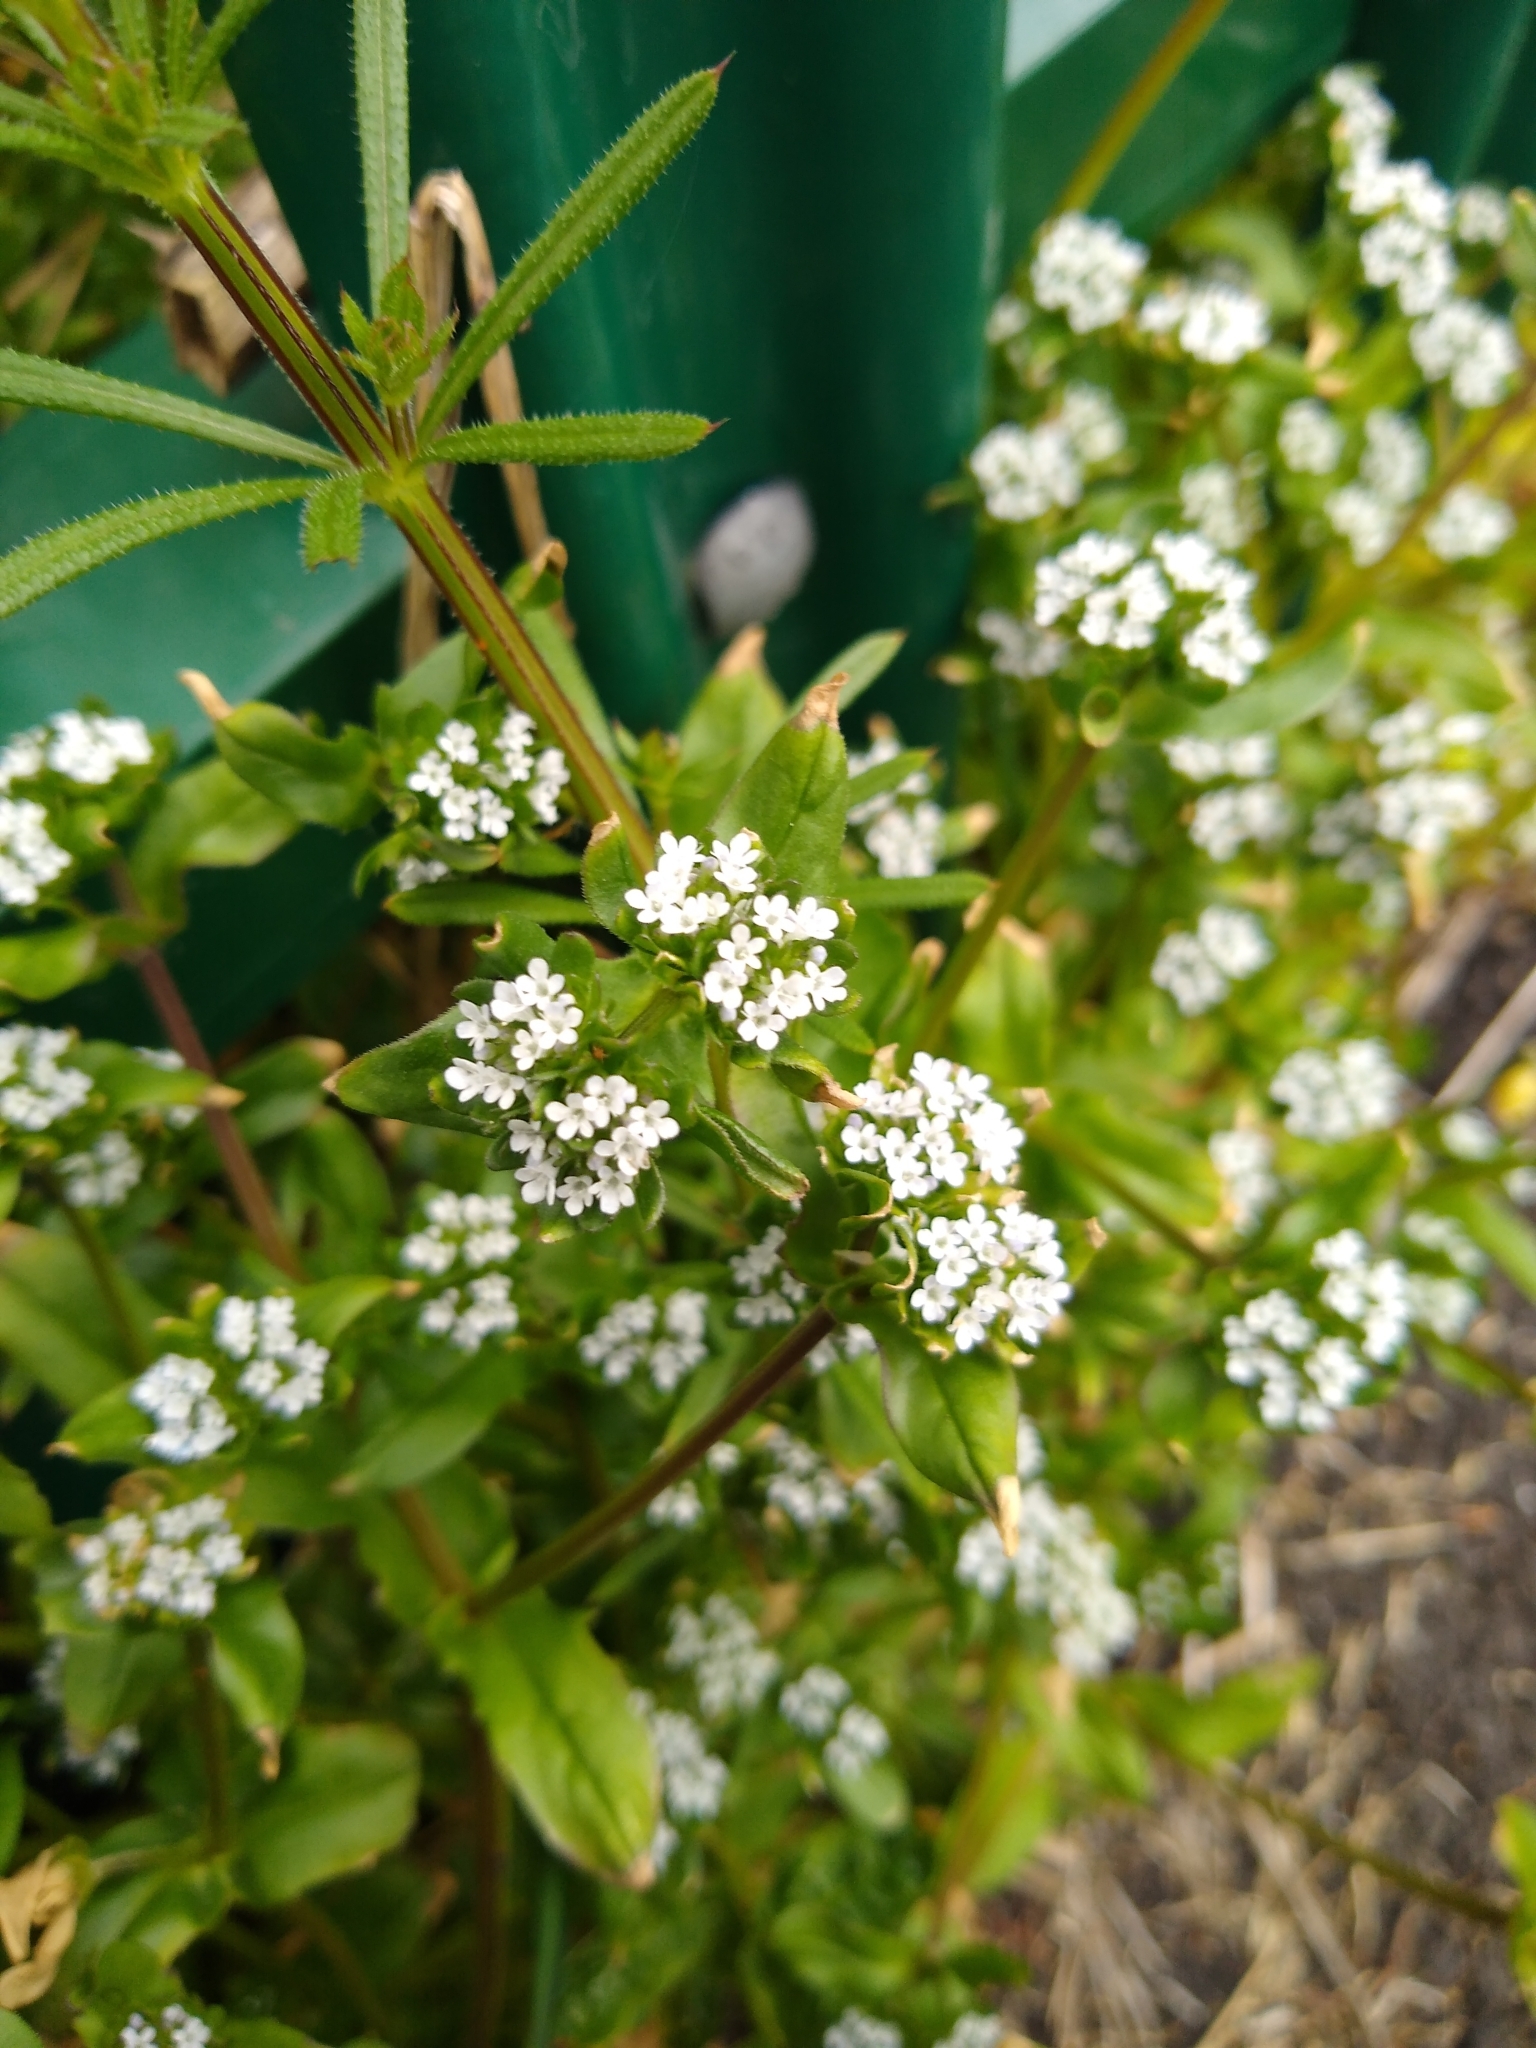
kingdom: Plantae
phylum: Tracheophyta
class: Magnoliopsida
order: Dipsacales
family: Caprifoliaceae
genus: Valerianella
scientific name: Valerianella locusta
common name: Common cornsalad
